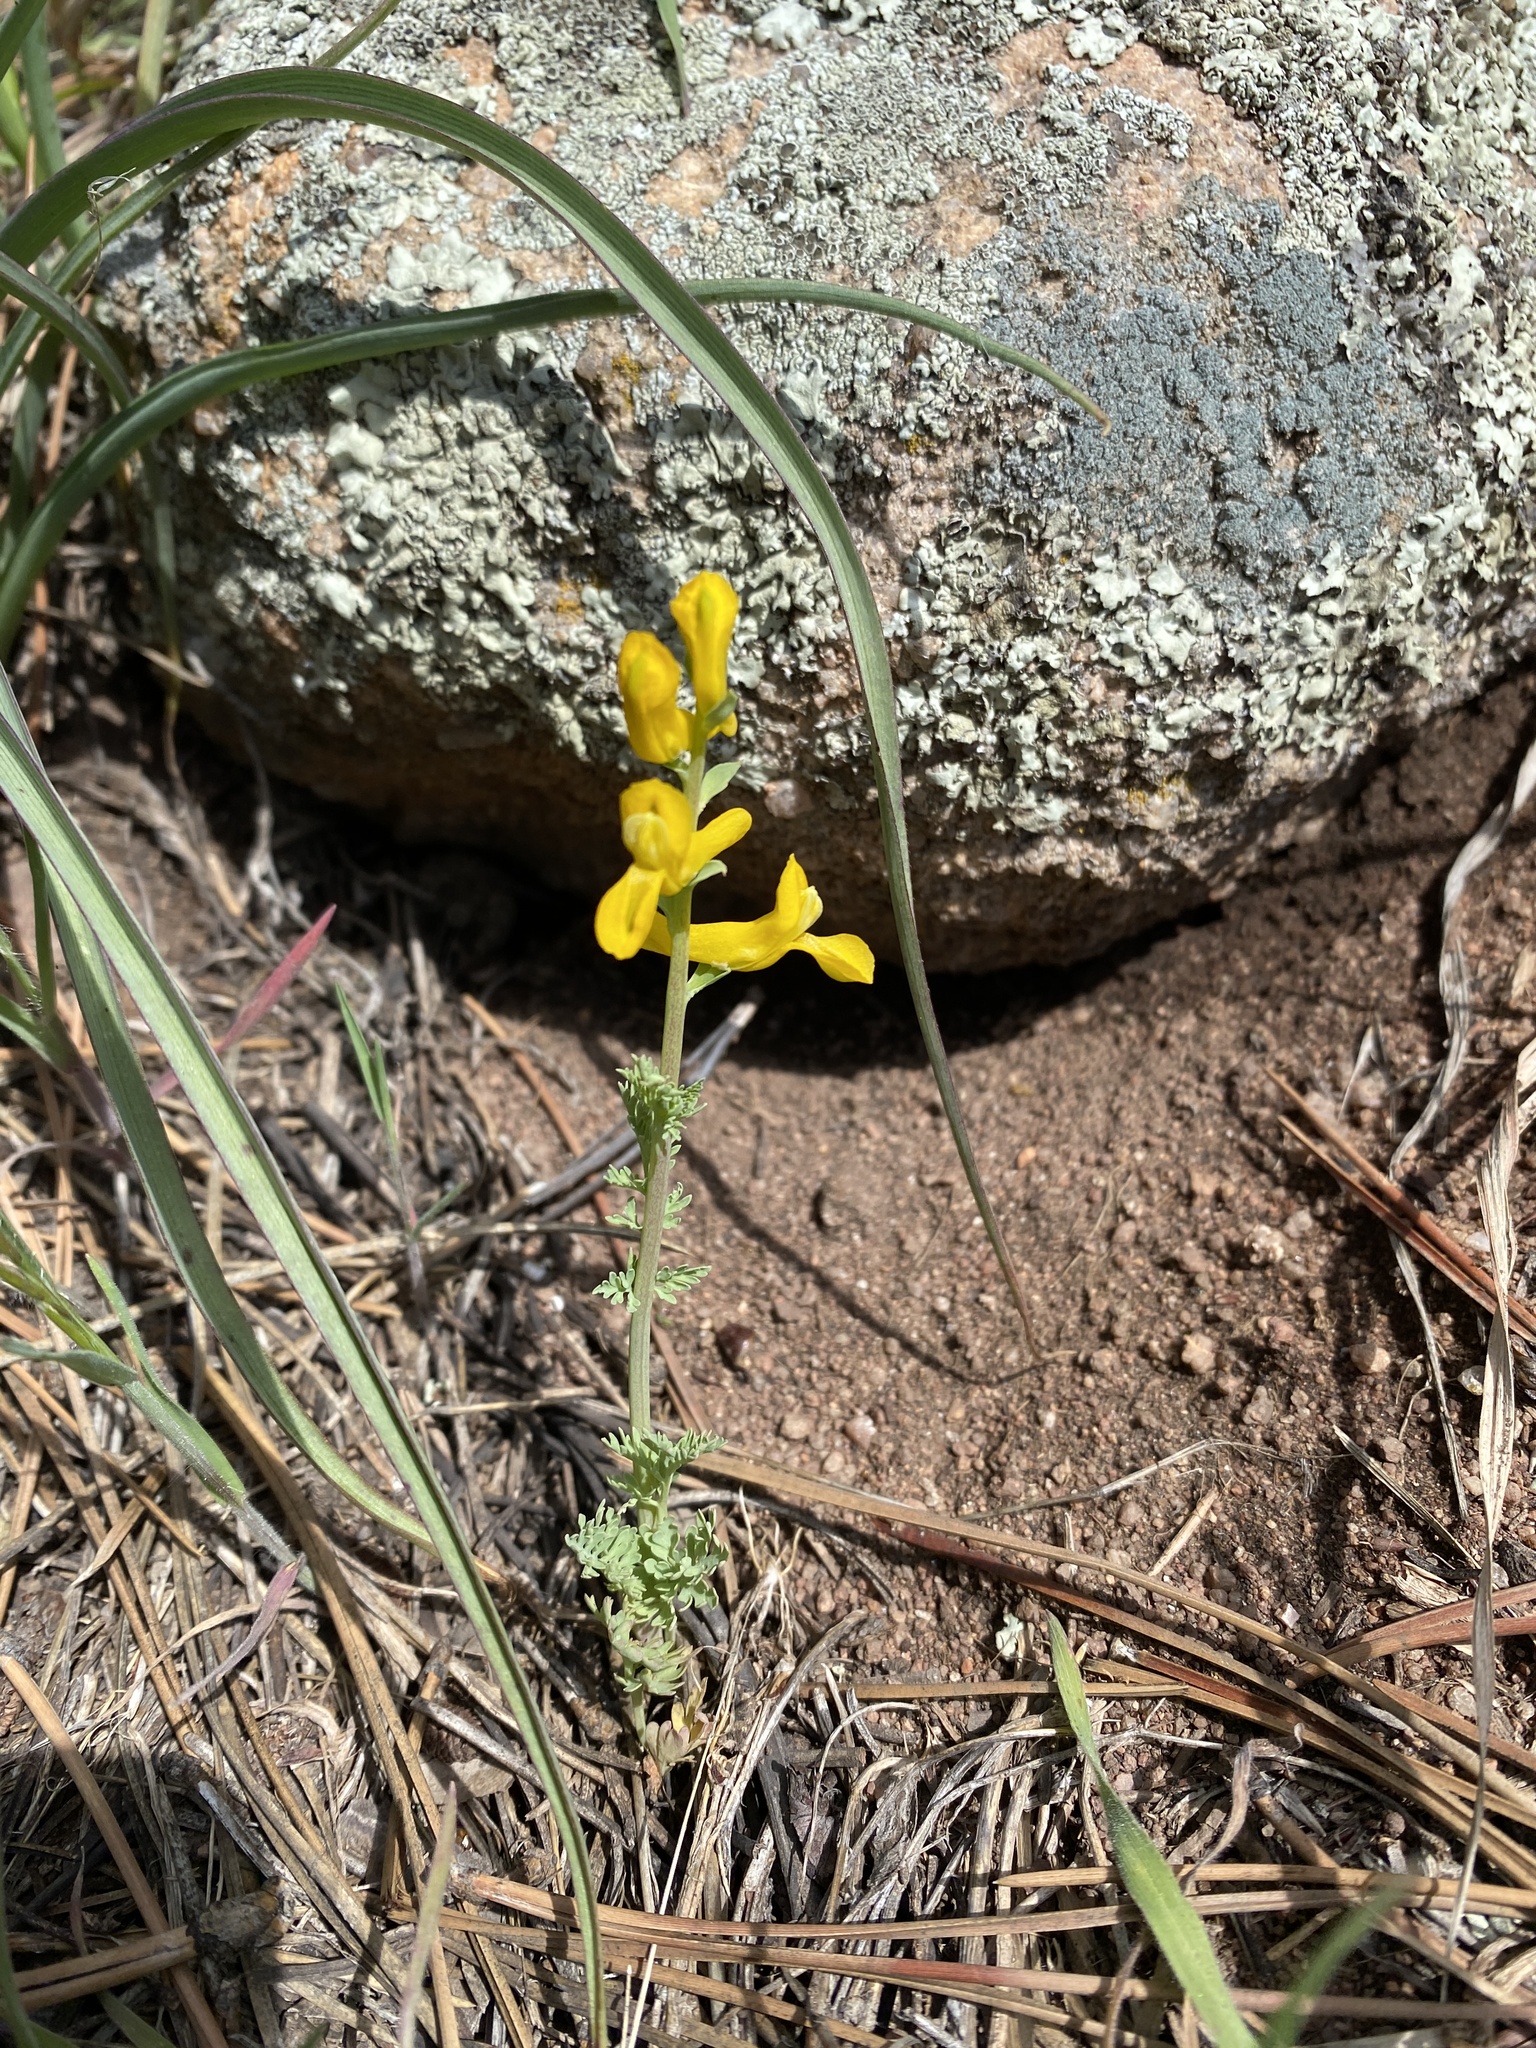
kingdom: Plantae
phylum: Tracheophyta
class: Magnoliopsida
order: Ranunculales
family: Papaveraceae
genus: Corydalis
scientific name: Corydalis aurea
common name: Golden corydalis
